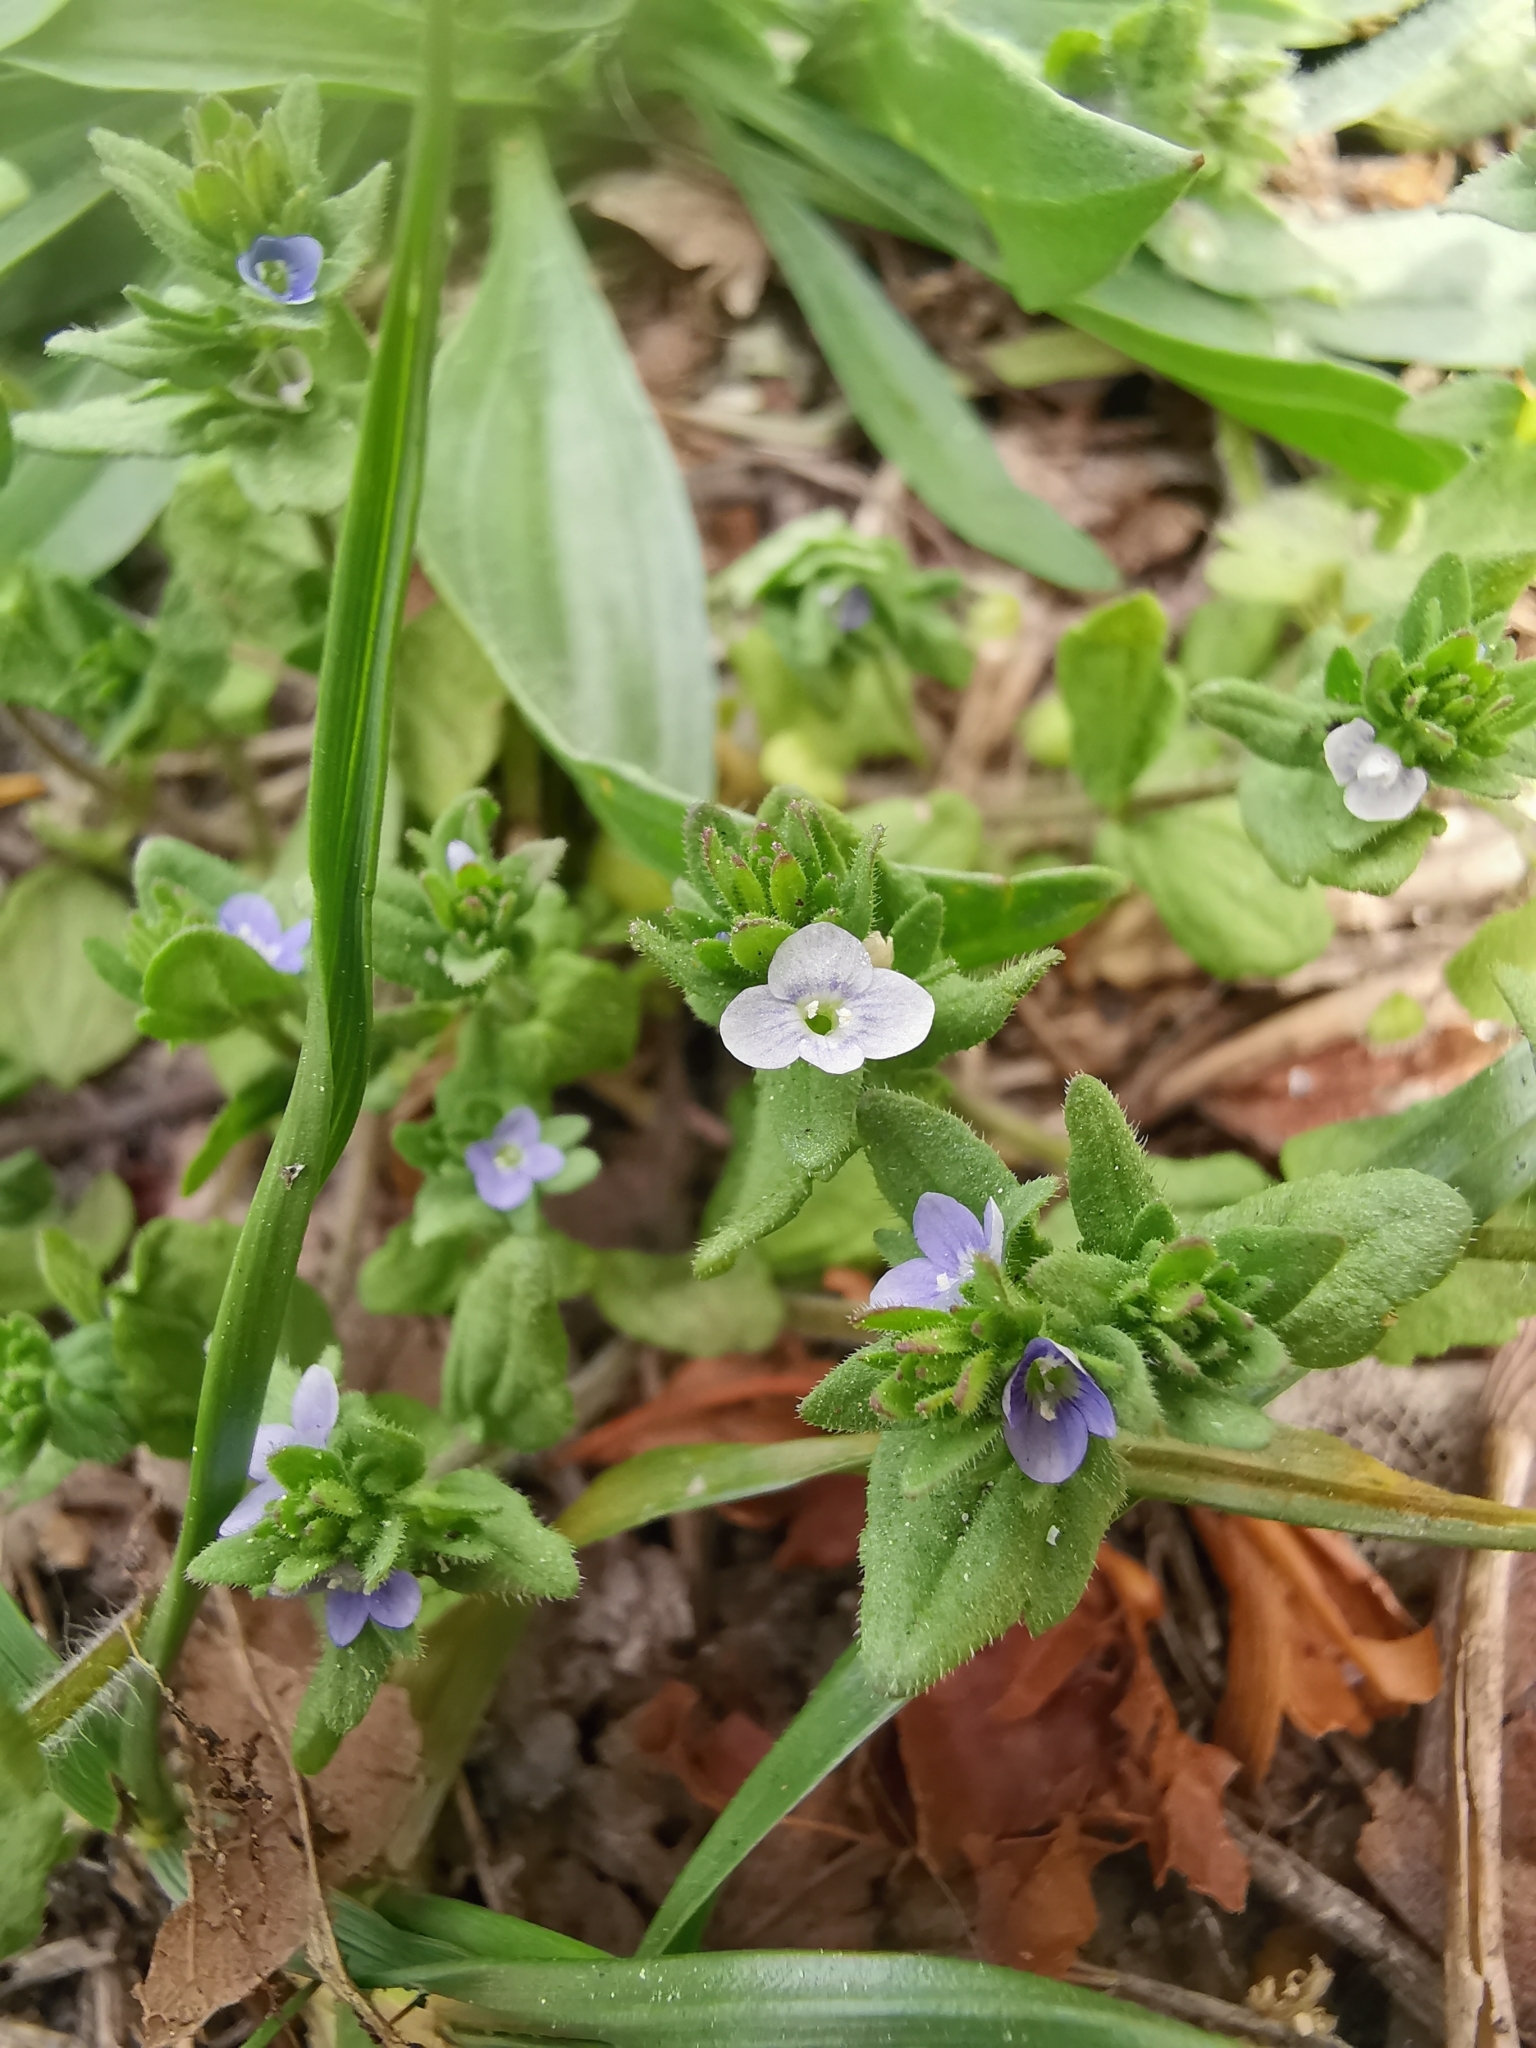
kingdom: Plantae
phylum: Tracheophyta
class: Magnoliopsida
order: Lamiales
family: Plantaginaceae
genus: Veronica
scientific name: Veronica arvensis
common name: Corn speedwell
